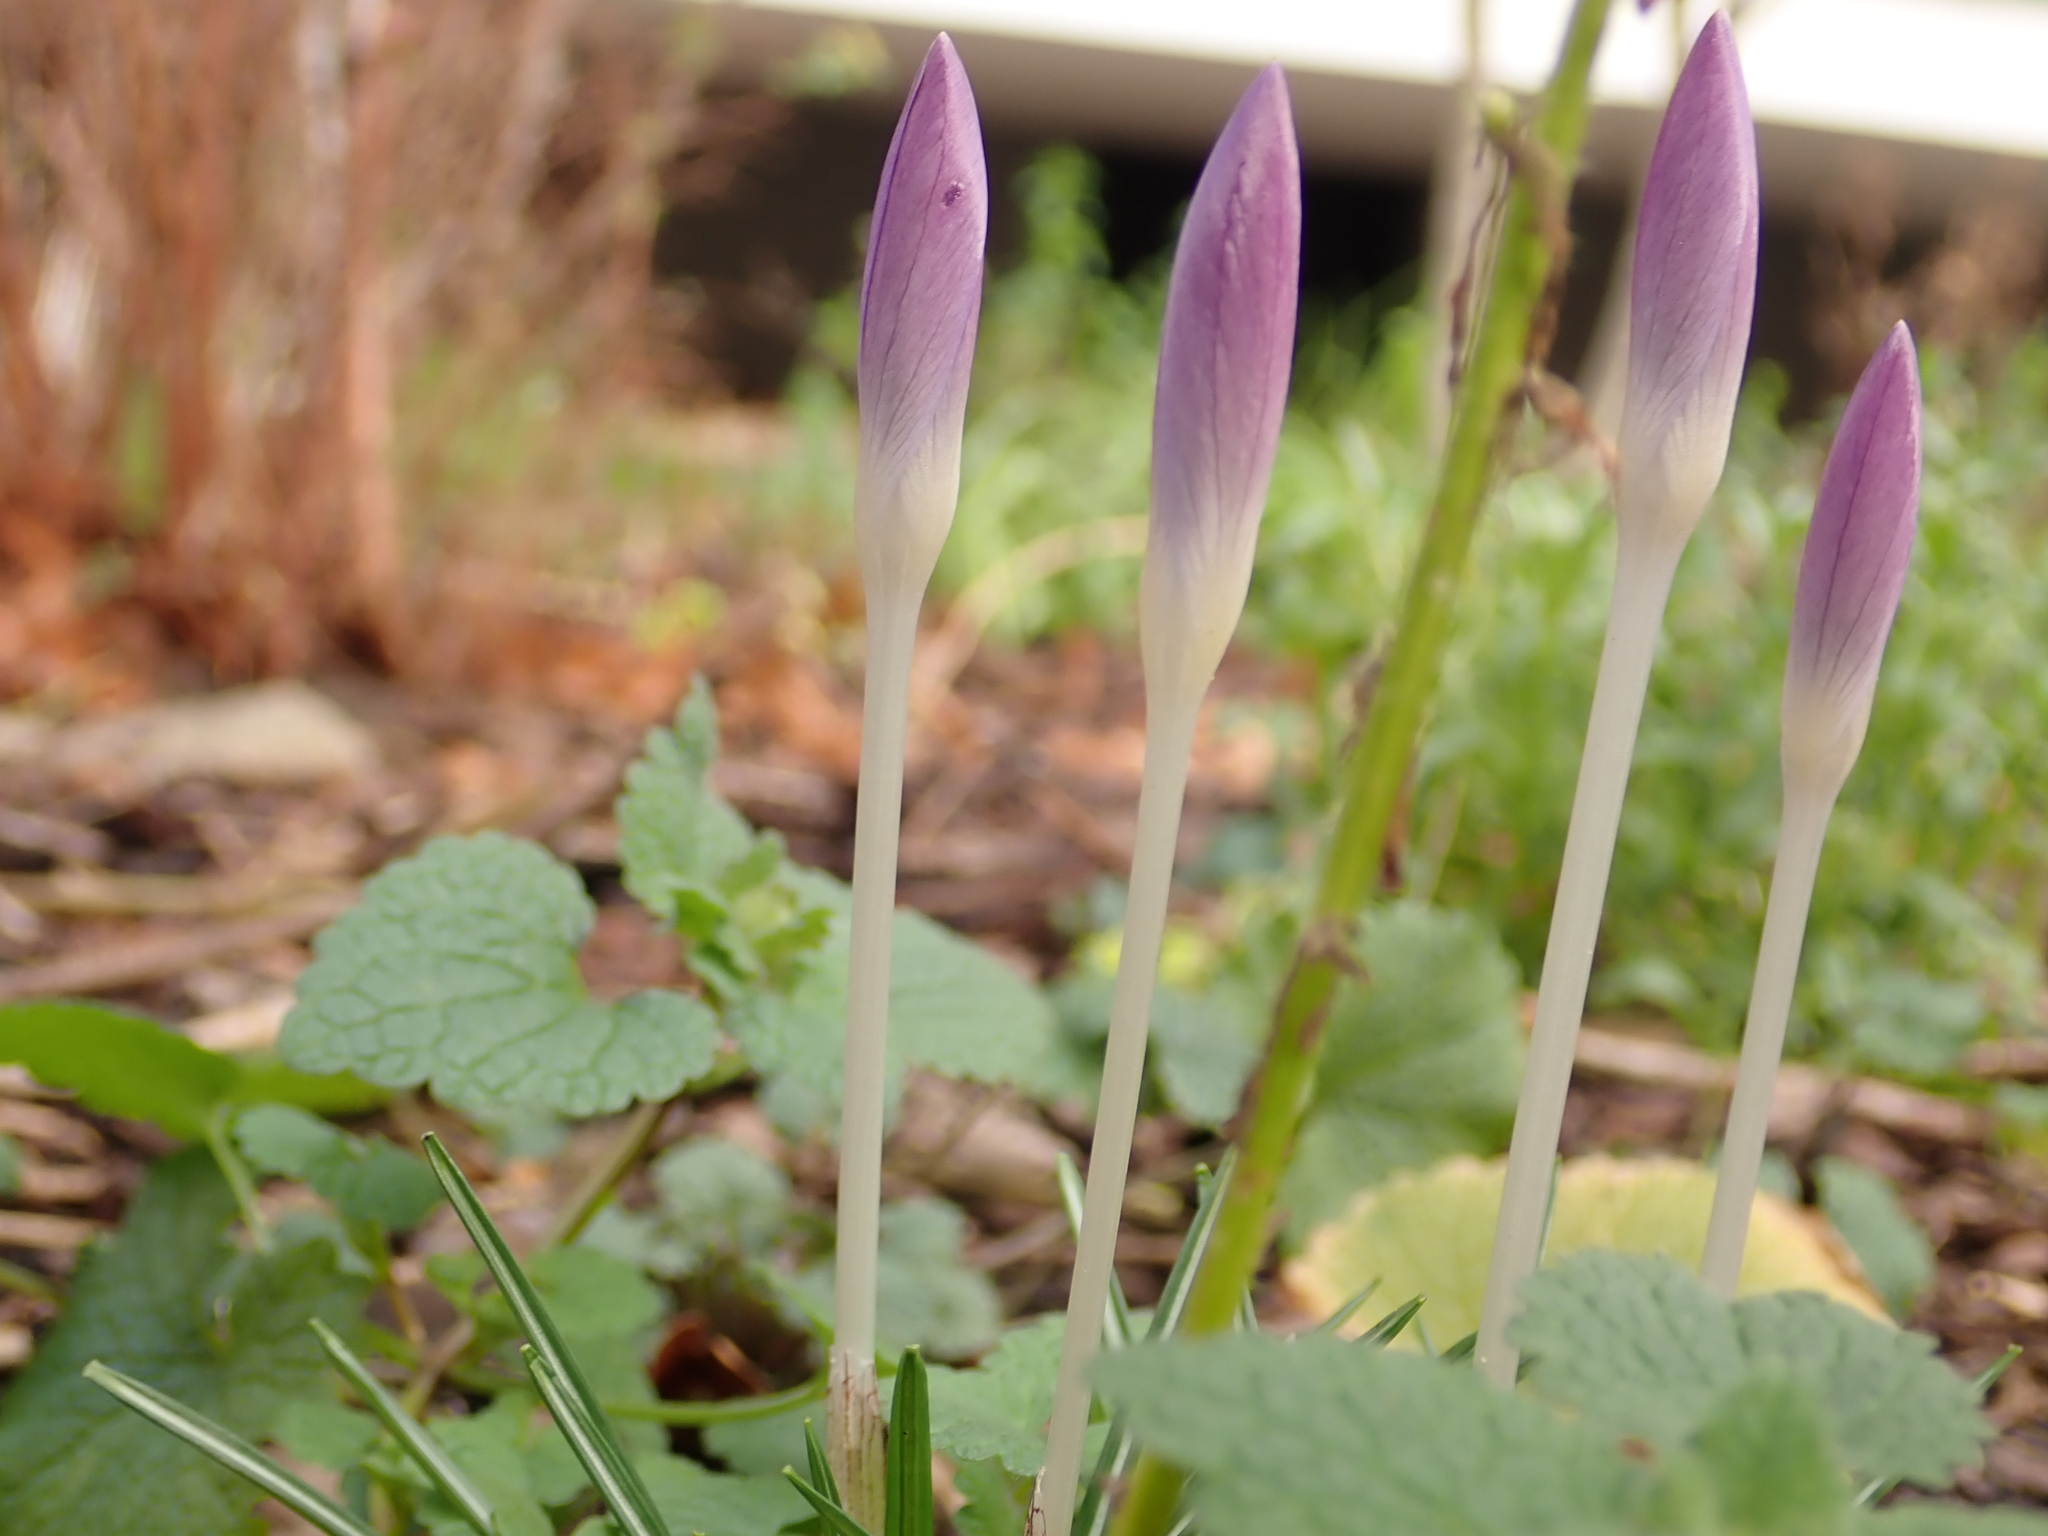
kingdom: Plantae
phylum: Tracheophyta
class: Liliopsida
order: Asparagales
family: Iridaceae
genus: Crocus
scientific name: Crocus tommasinianus
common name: Early crocus
